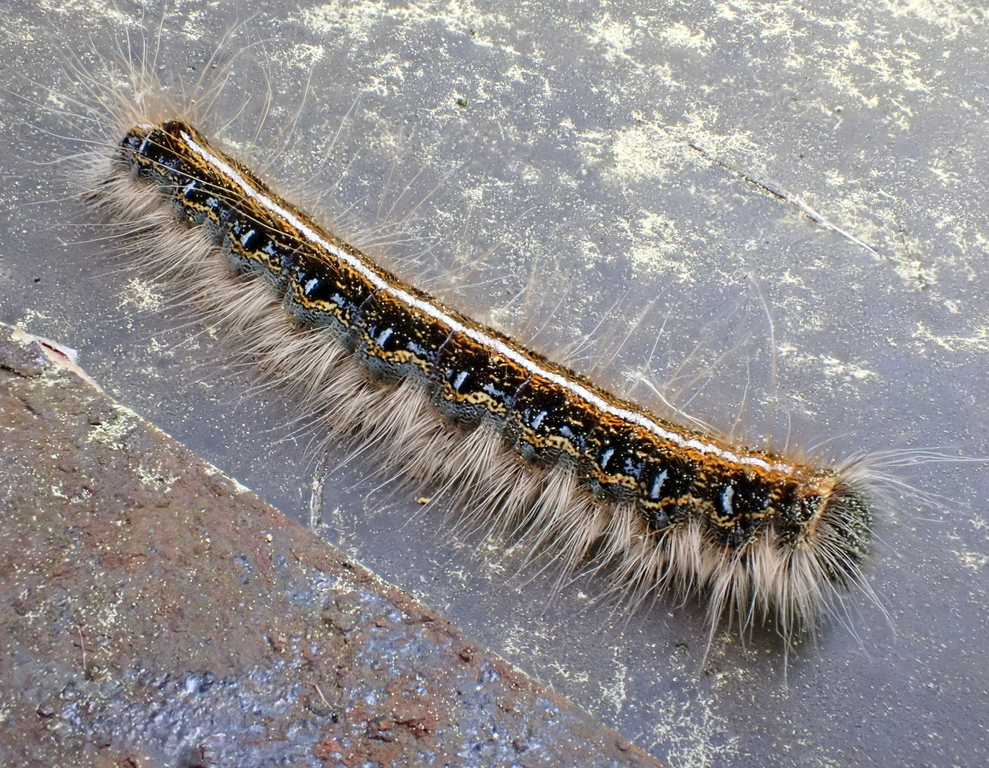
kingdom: Animalia
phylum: Arthropoda
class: Insecta
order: Lepidoptera
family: Lasiocampidae
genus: Malacosoma
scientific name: Malacosoma americana
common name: Eastern tent caterpillar moth
